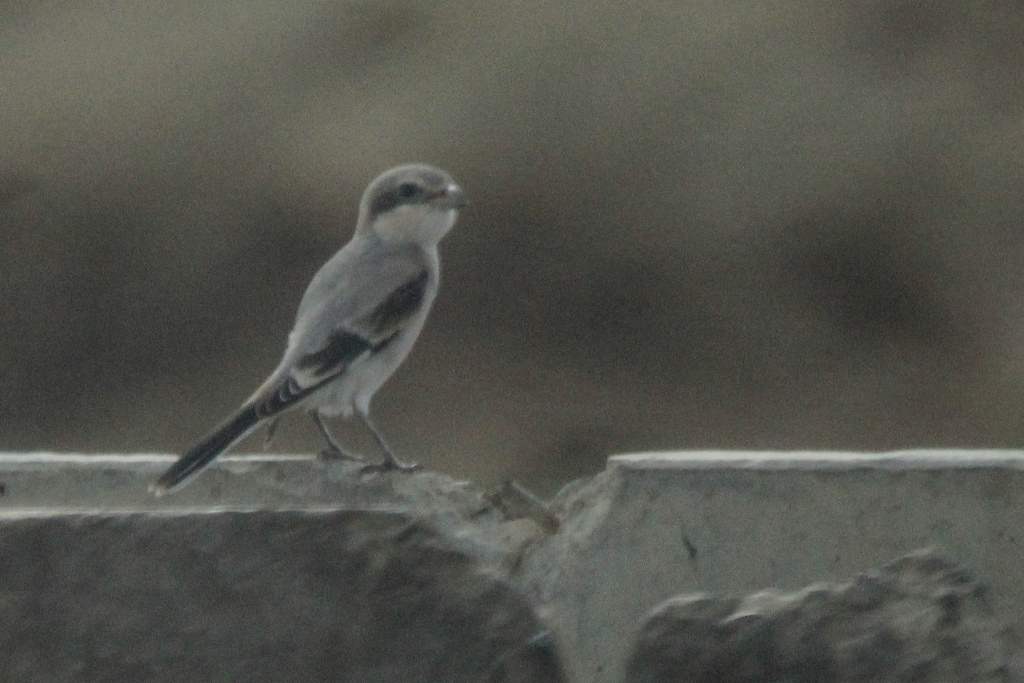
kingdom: Animalia
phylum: Chordata
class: Aves
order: Passeriformes
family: Laniidae
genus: Lanius
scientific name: Lanius excubitor
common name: Great grey shrike
